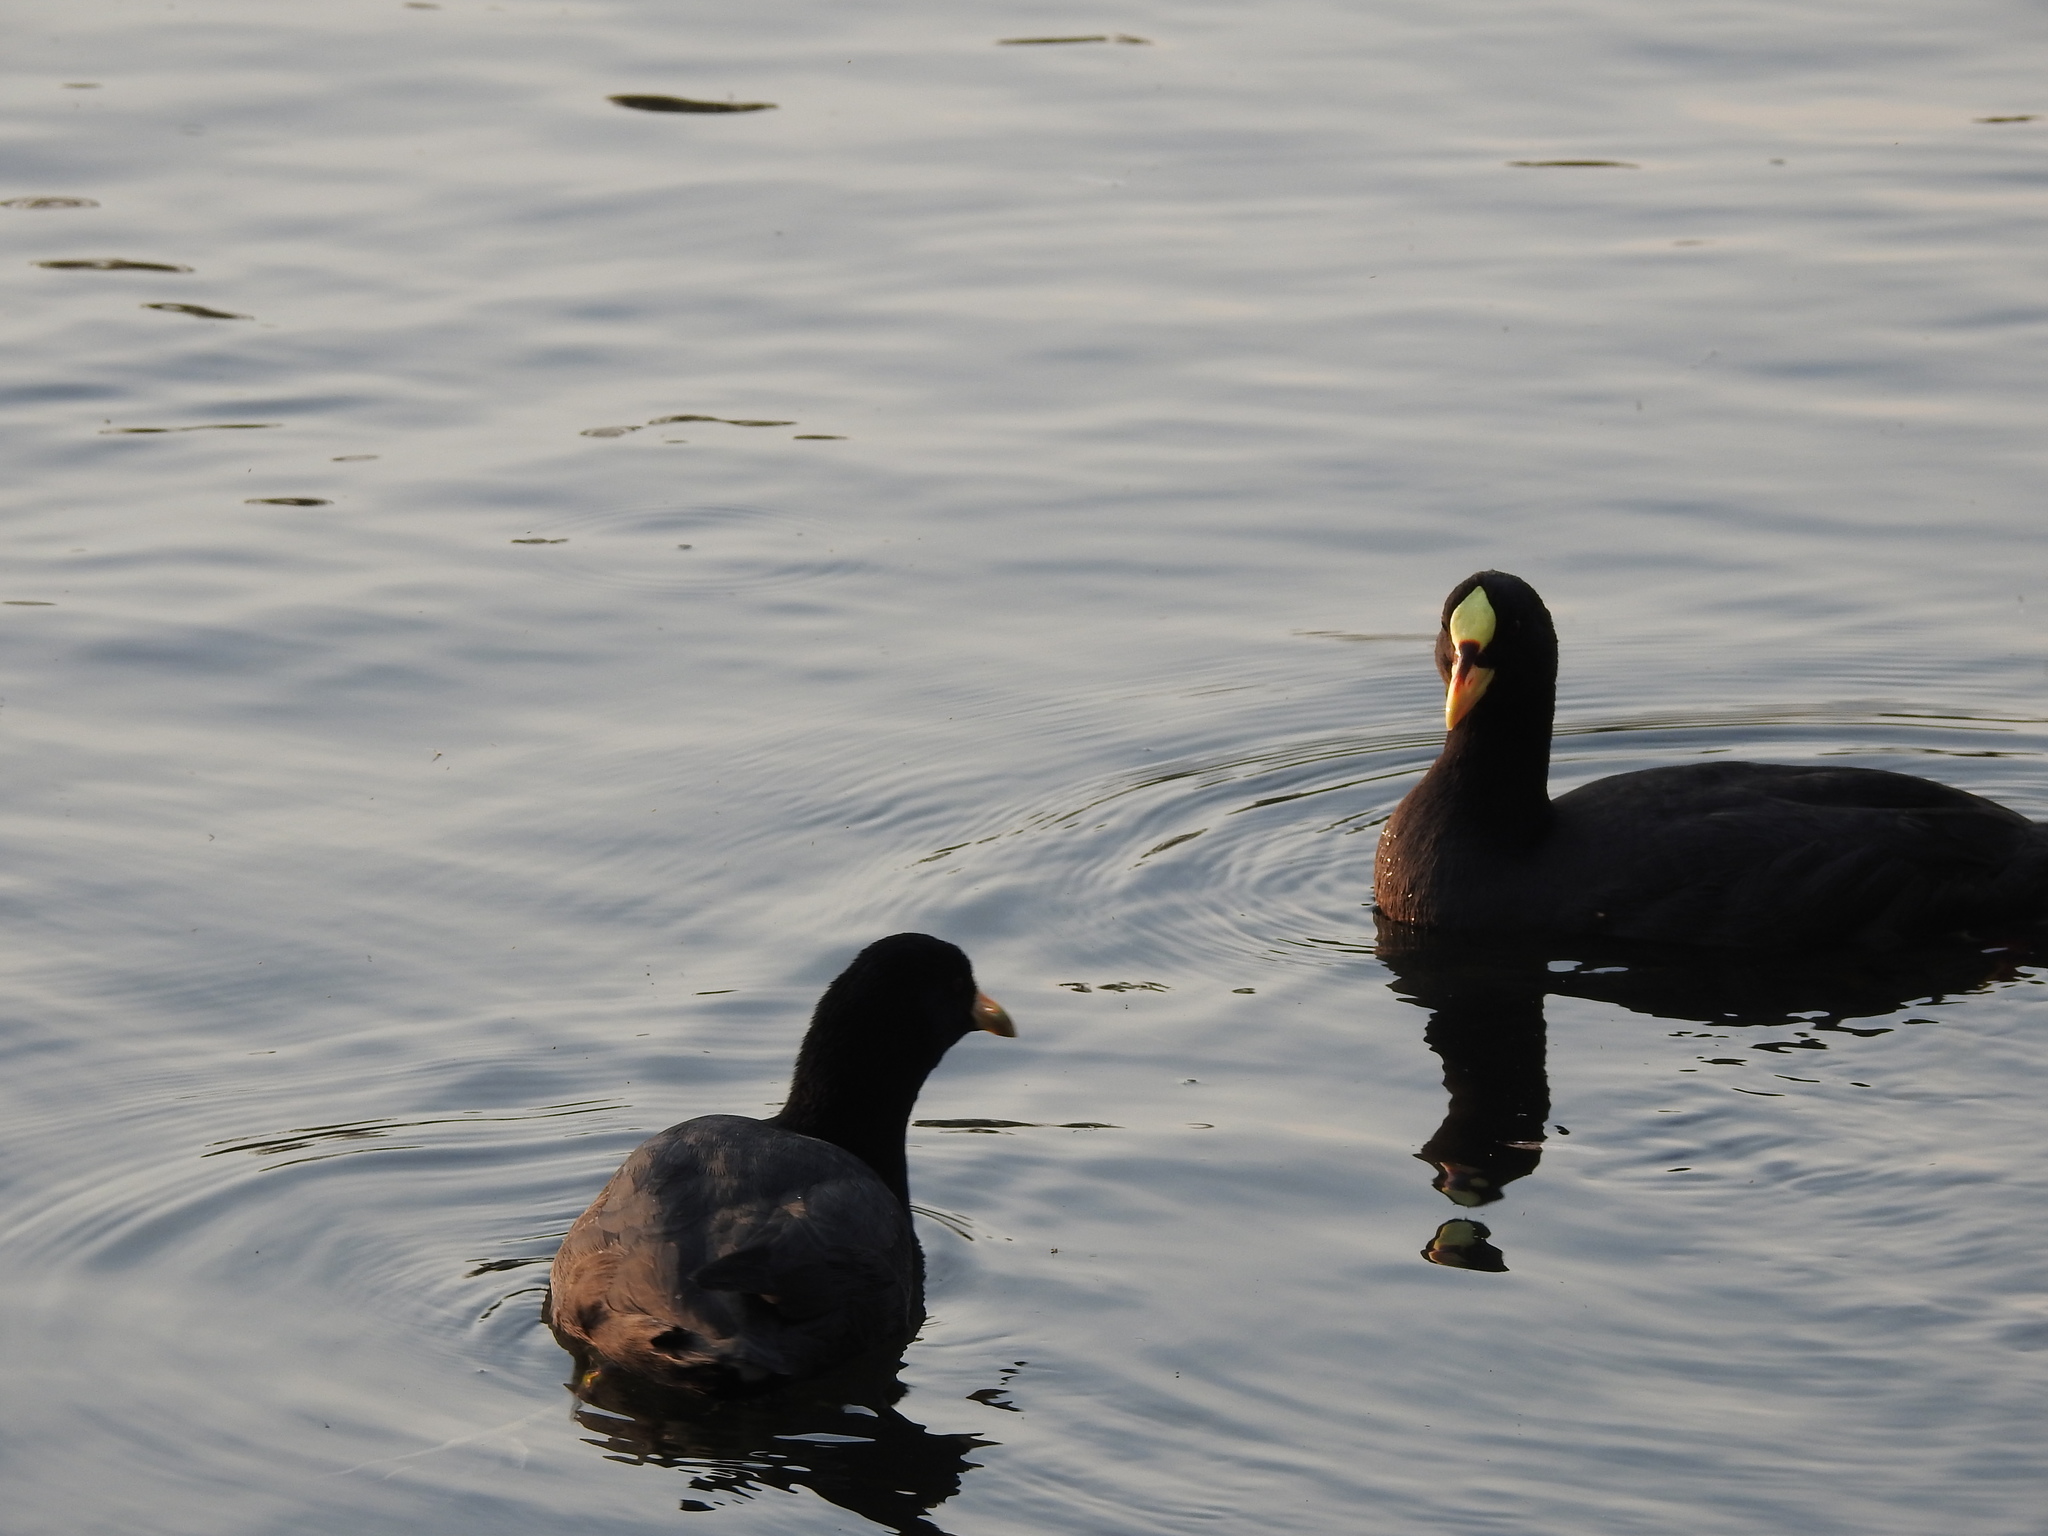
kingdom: Animalia
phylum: Chordata
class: Aves
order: Gruiformes
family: Rallidae
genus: Fulica
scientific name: Fulica armillata
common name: Red-gartered coot
